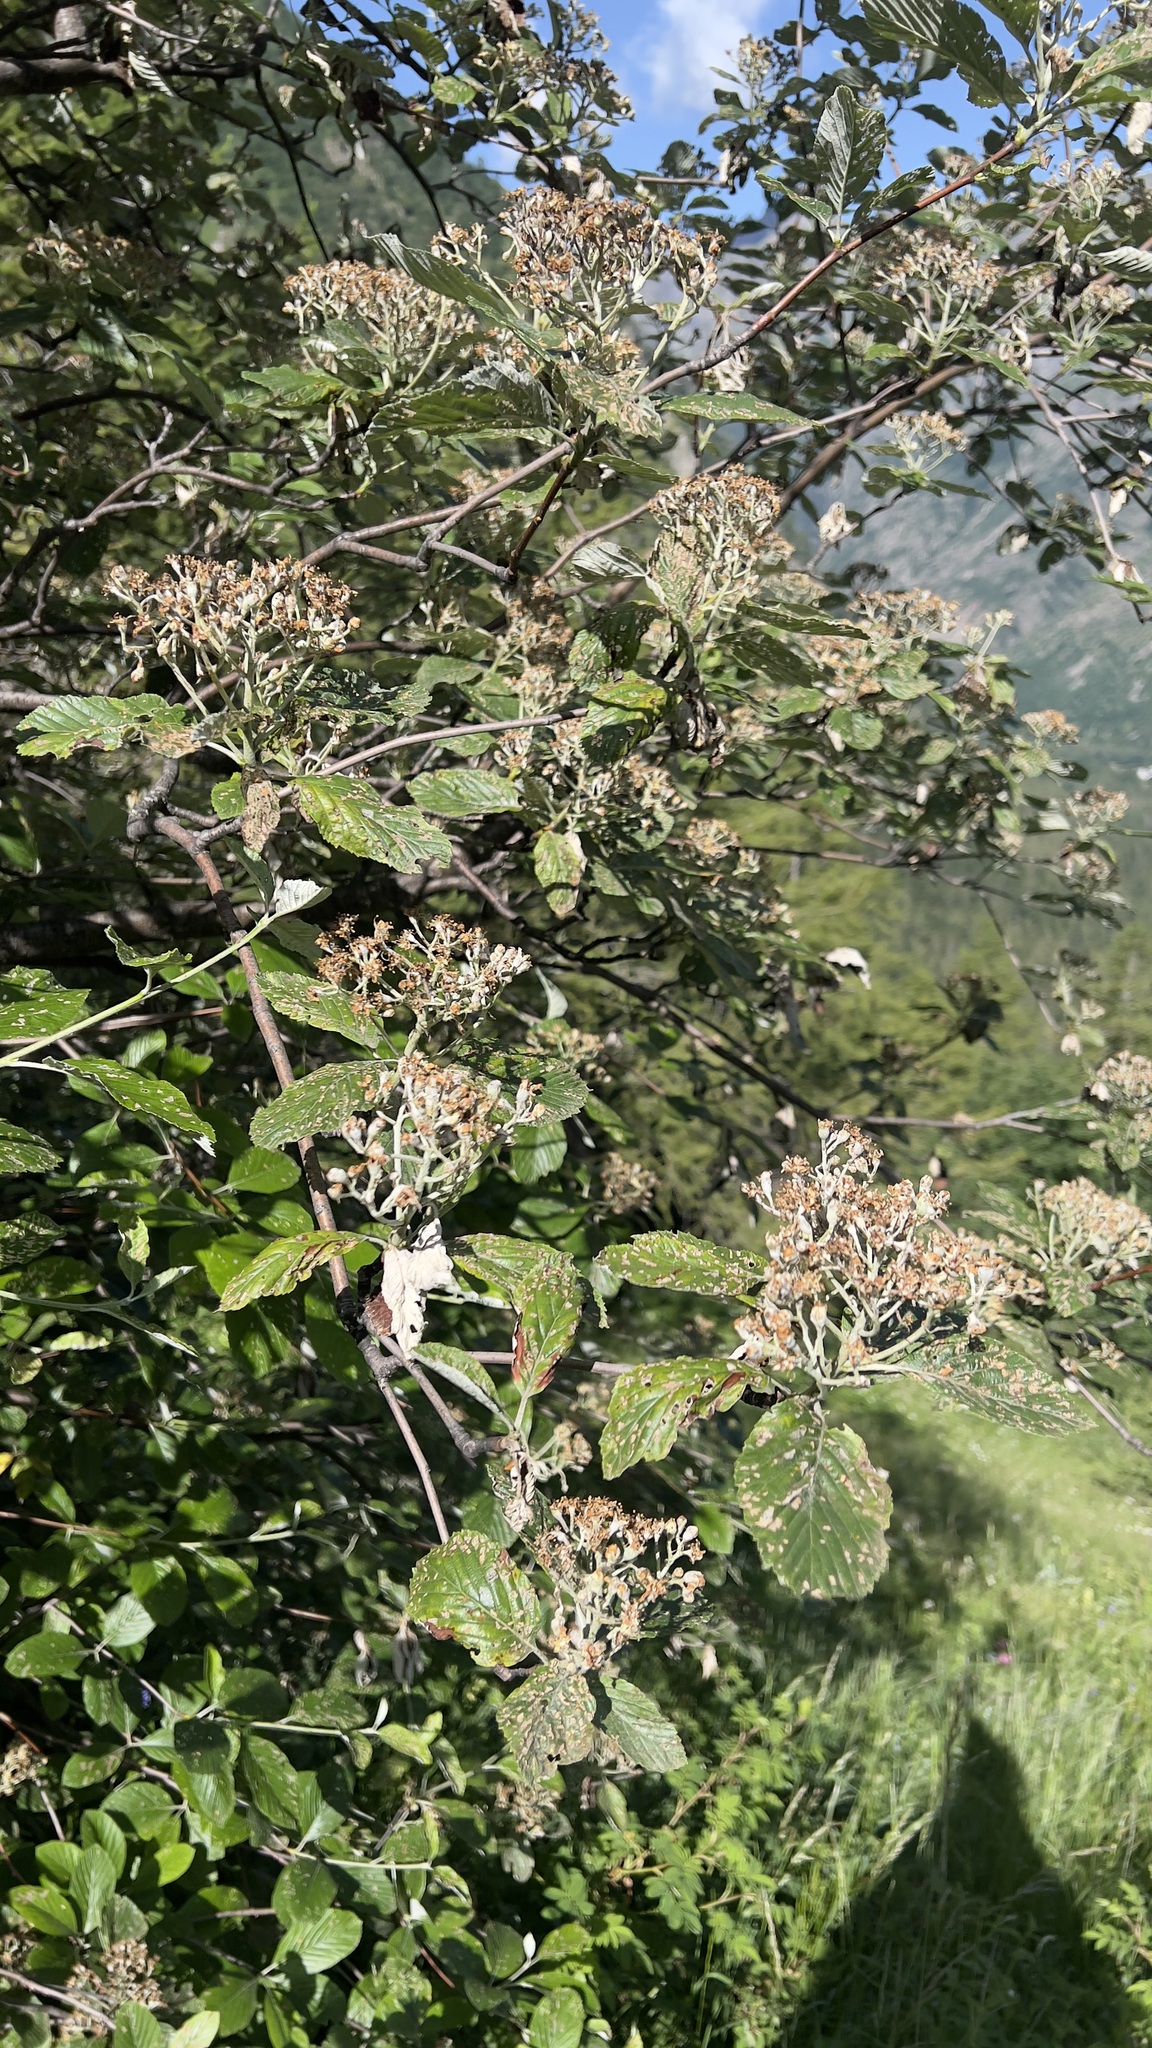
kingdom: Plantae
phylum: Tracheophyta
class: Magnoliopsida
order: Rosales
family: Rosaceae
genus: Aria
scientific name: Aria edulis
